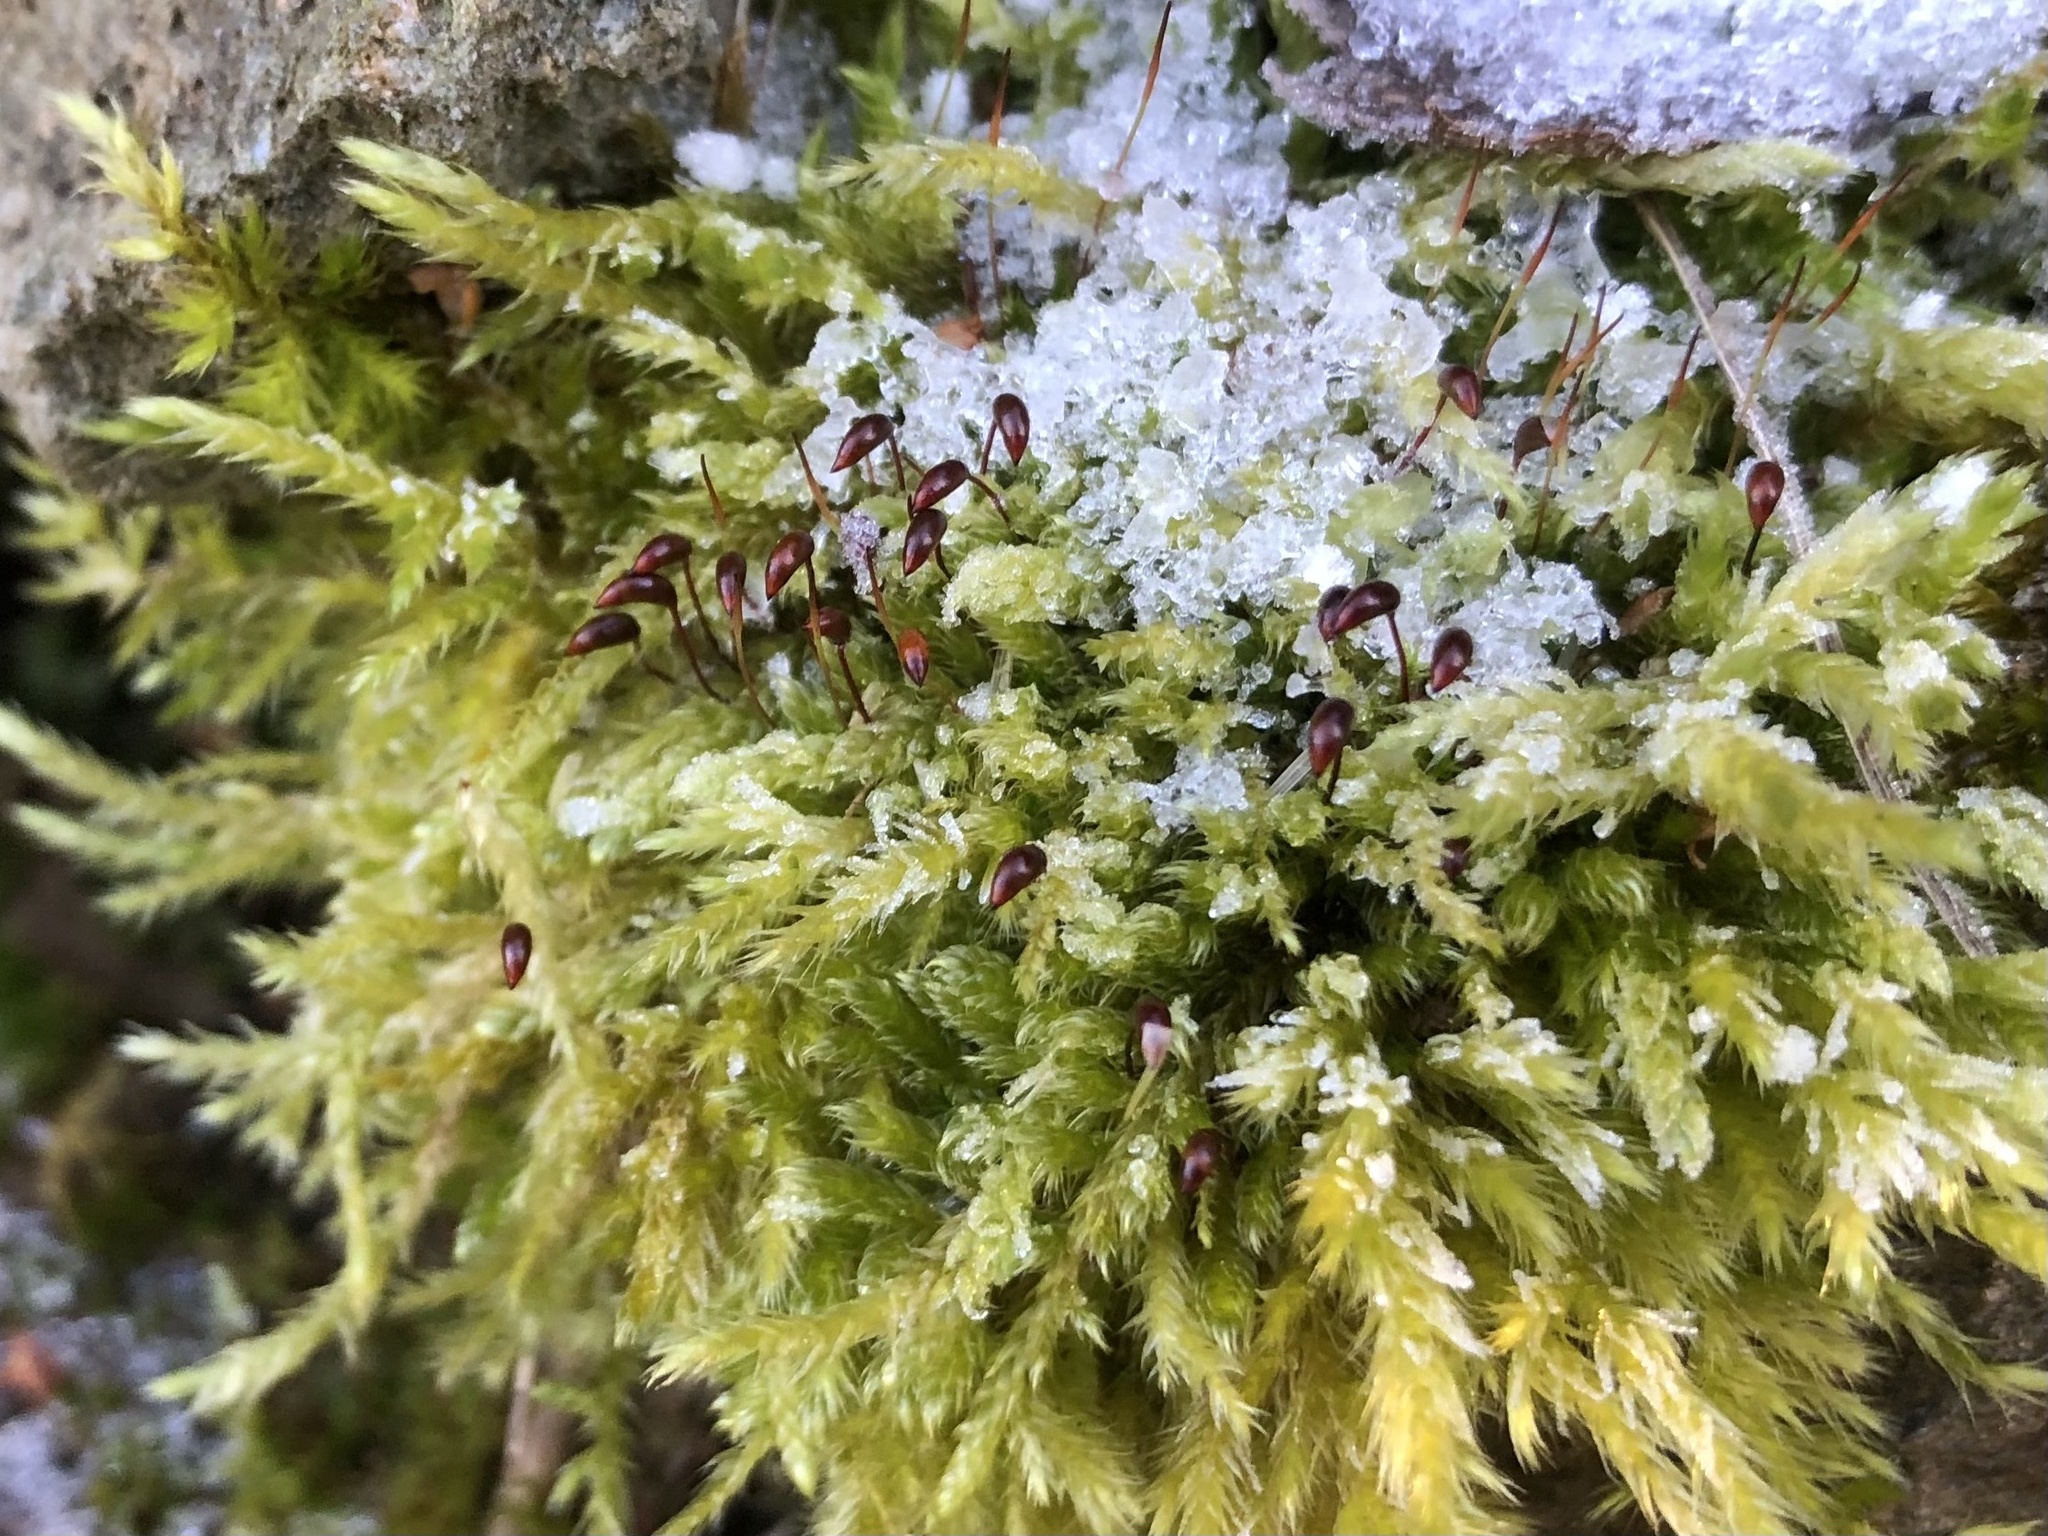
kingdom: Plantae
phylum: Bryophyta
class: Bryopsida
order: Hypnales
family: Brachytheciaceae
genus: Brachythecium
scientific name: Brachythecium rutabulum
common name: Rough-stalked feather-moss
